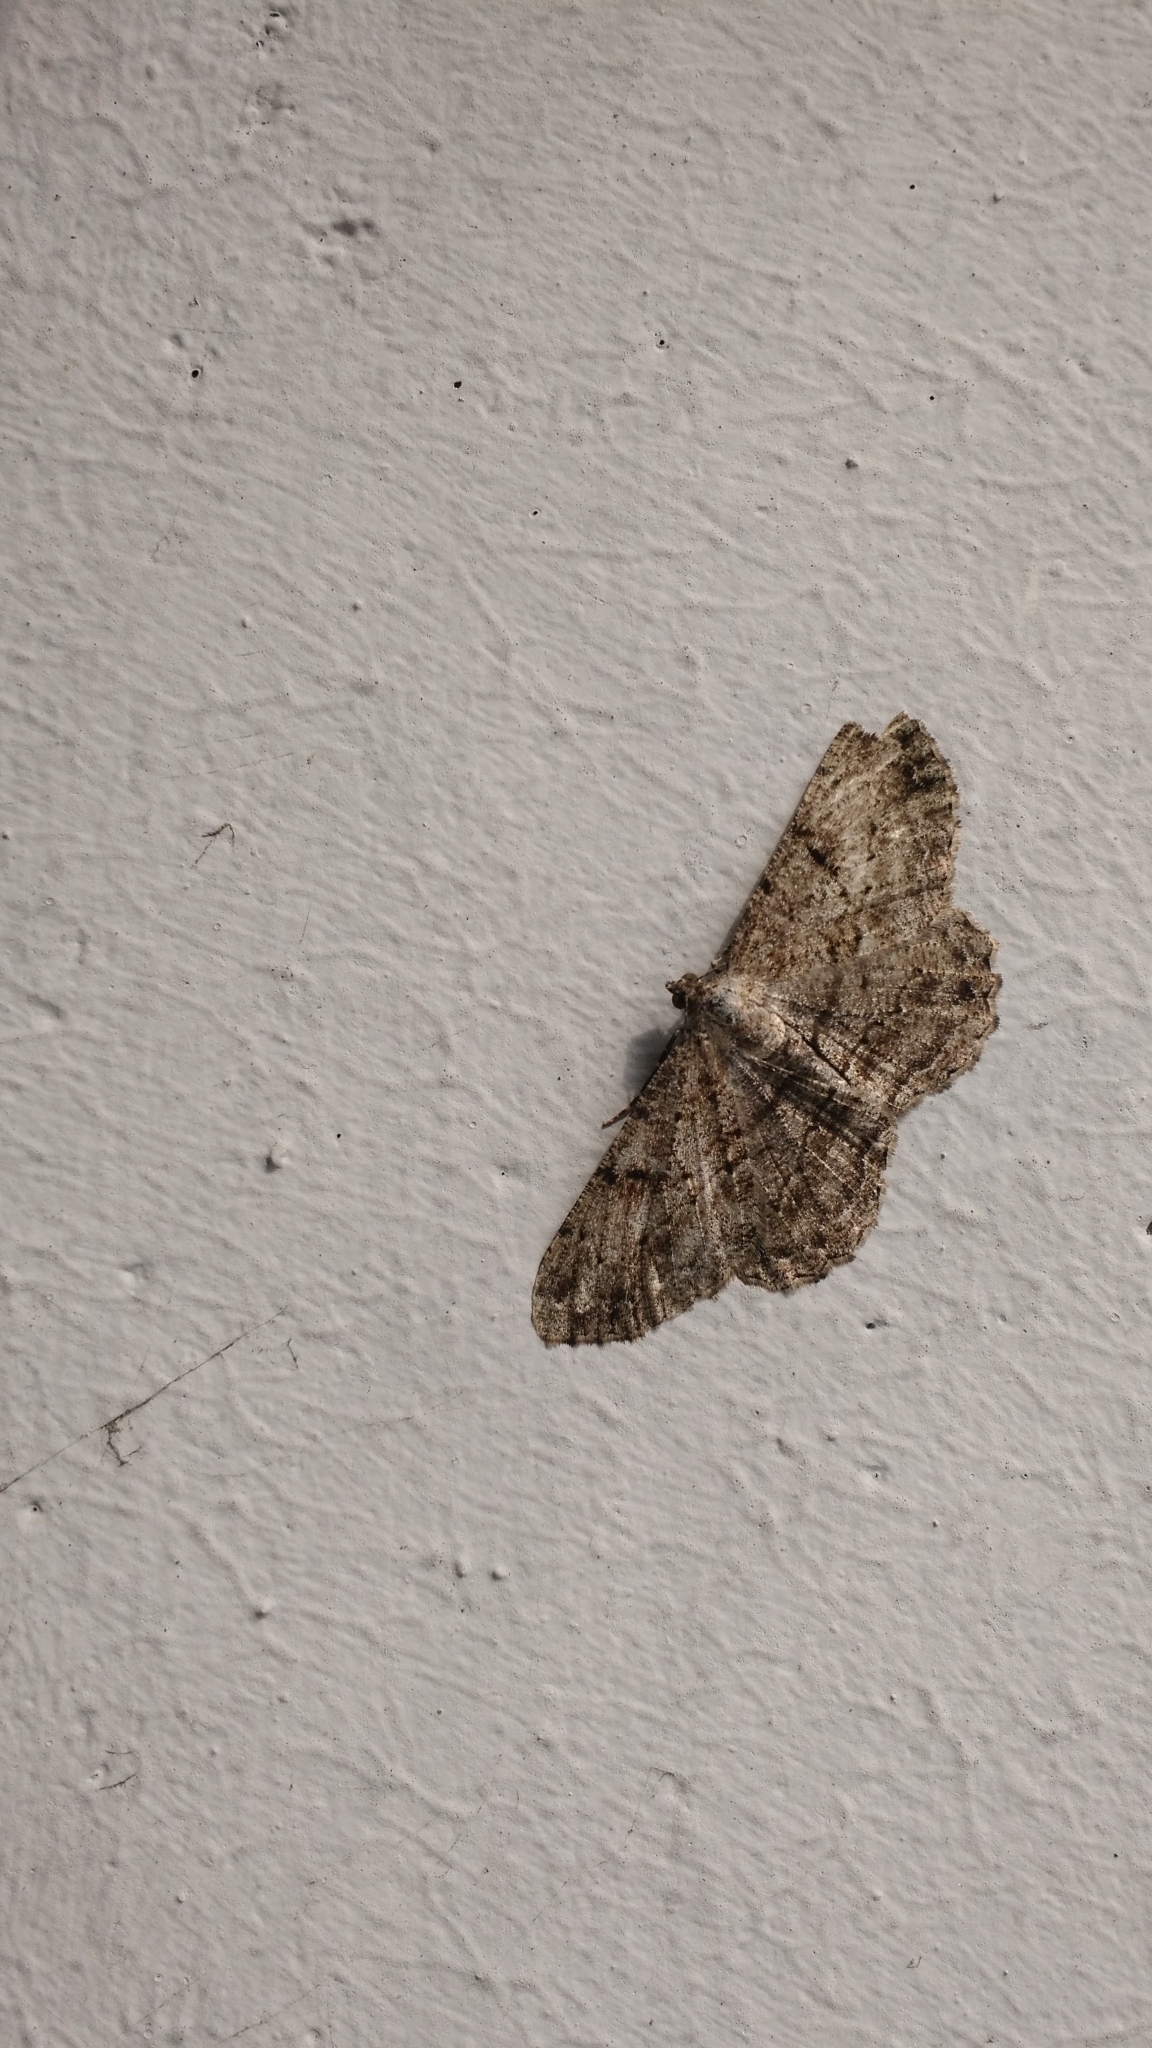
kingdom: Animalia
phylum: Arthropoda
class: Insecta
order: Lepidoptera
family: Geometridae
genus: Peribatodes
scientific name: Peribatodes rhomboidaria
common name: Willow beauty
